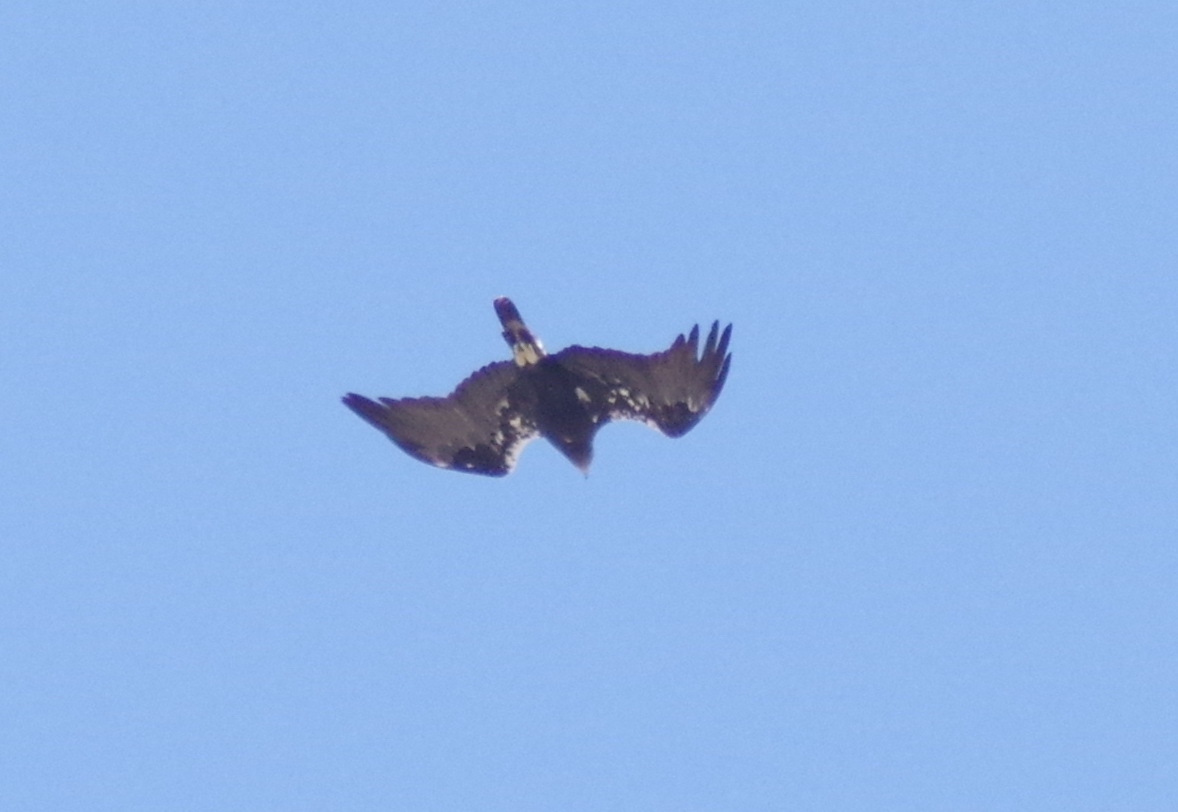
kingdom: Animalia
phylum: Chordata
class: Aves
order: Accipitriformes
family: Accipitridae
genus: Aquila
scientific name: Aquila adalberti
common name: Spanish imperial eagle
